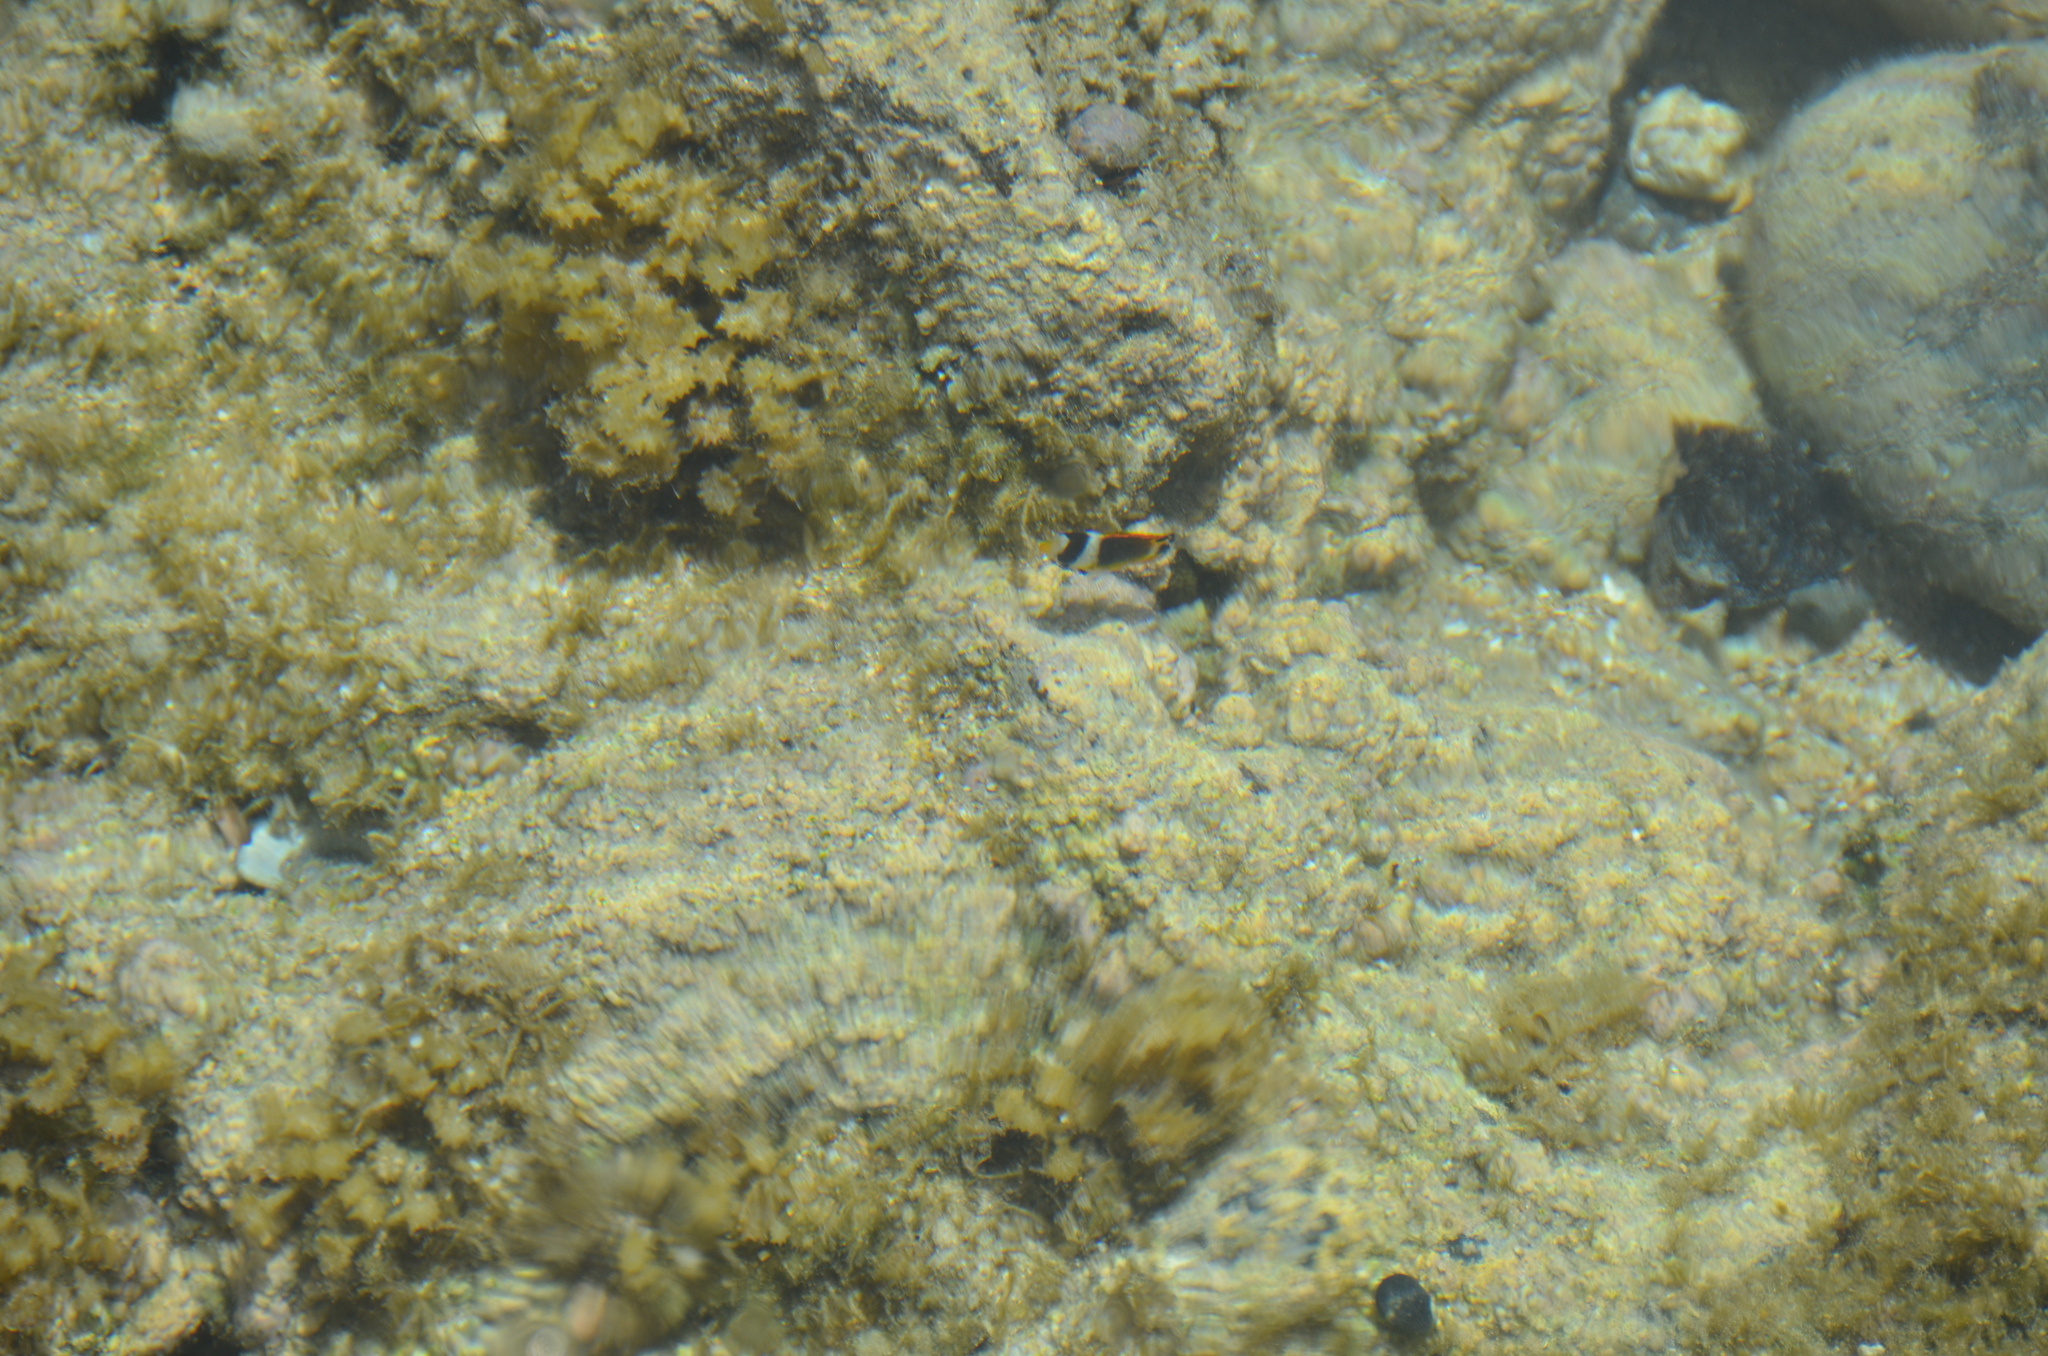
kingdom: Animalia
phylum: Chordata
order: Perciformes
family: Chaetodontidae
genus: Chaetodon
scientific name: Chaetodon lunula
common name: Raccoon butterflyfish
